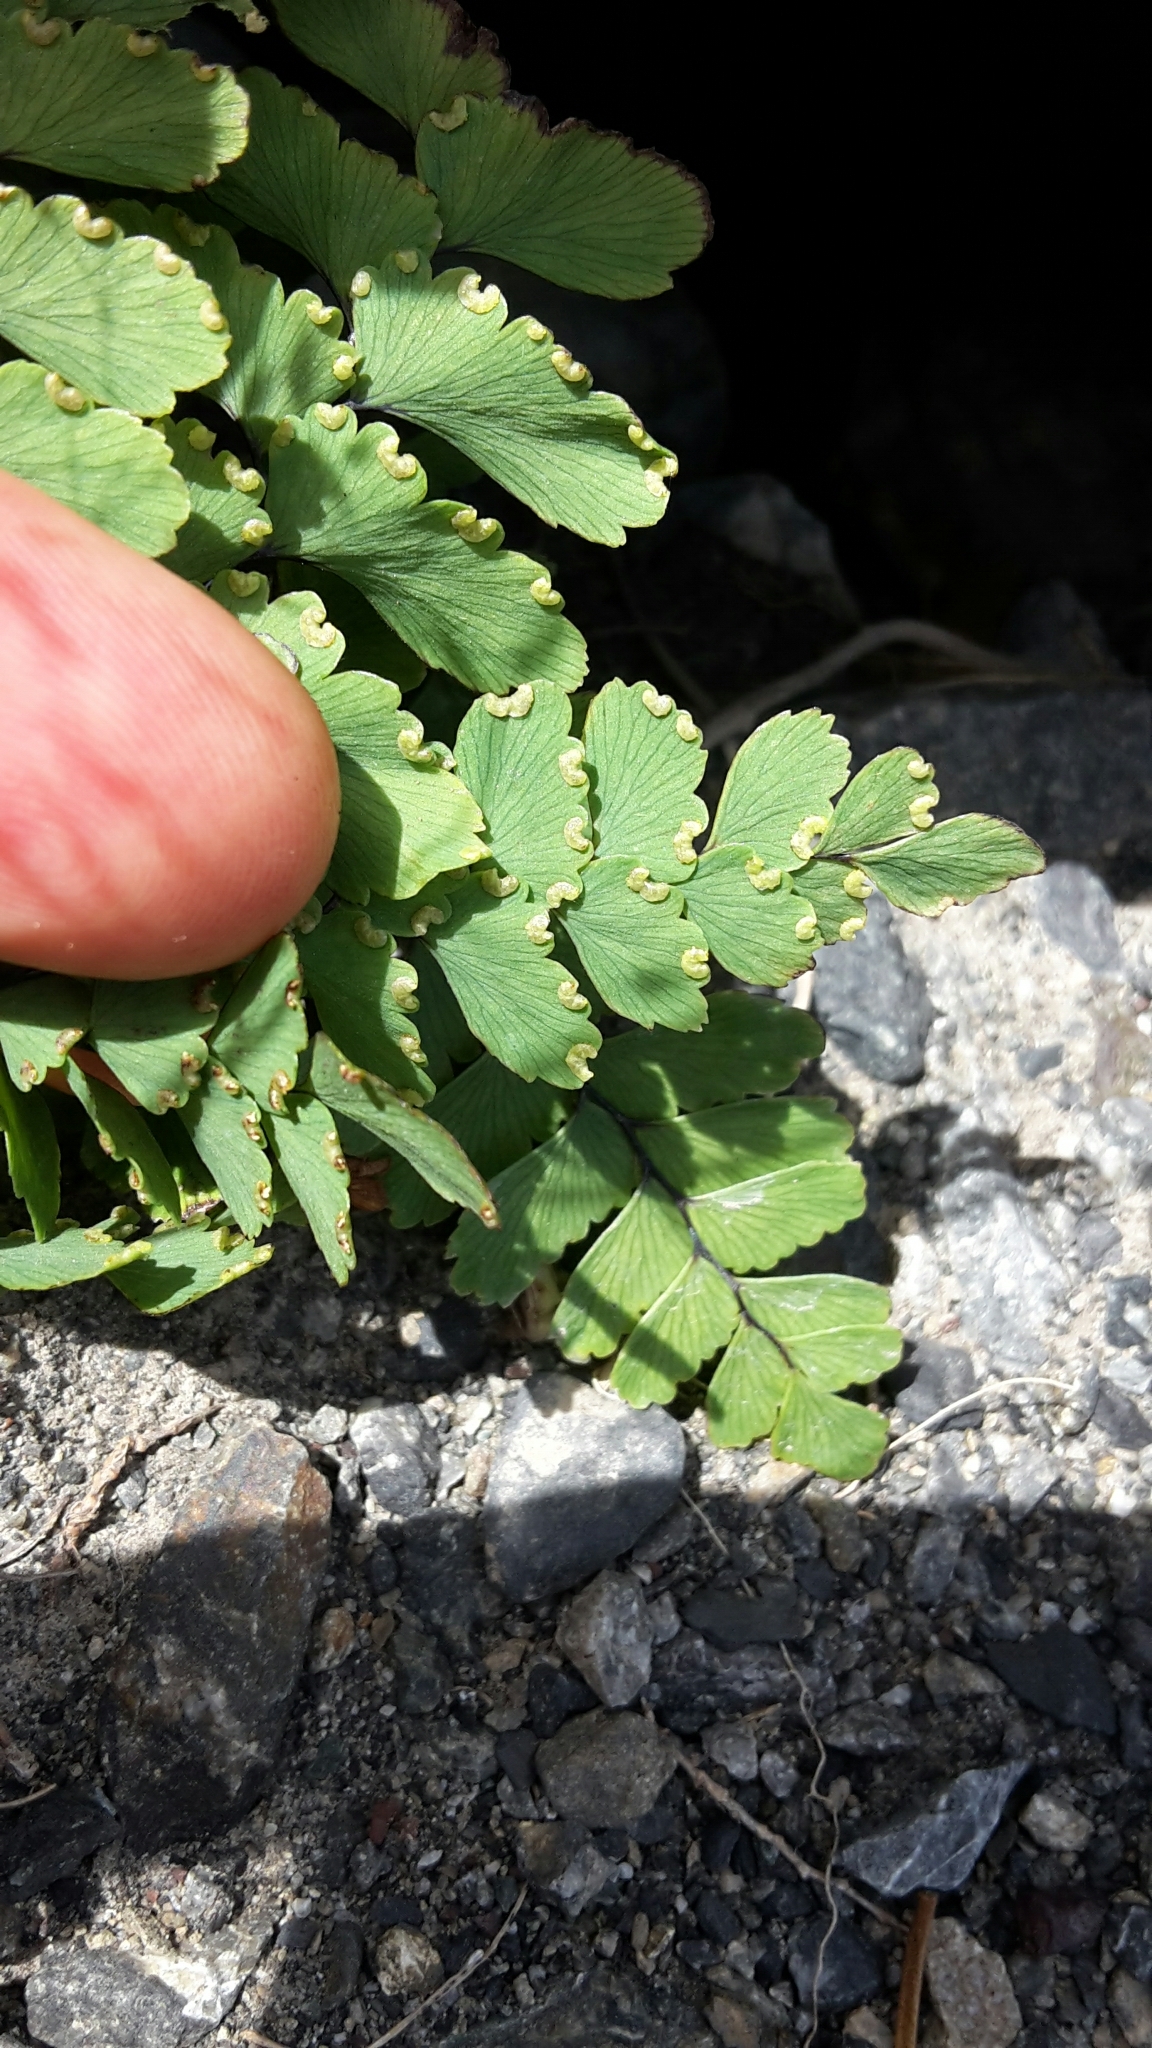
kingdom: Plantae
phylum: Tracheophyta
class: Polypodiopsida
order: Polypodiales
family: Pteridaceae
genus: Adiantum
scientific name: Adiantum cunninghamii
